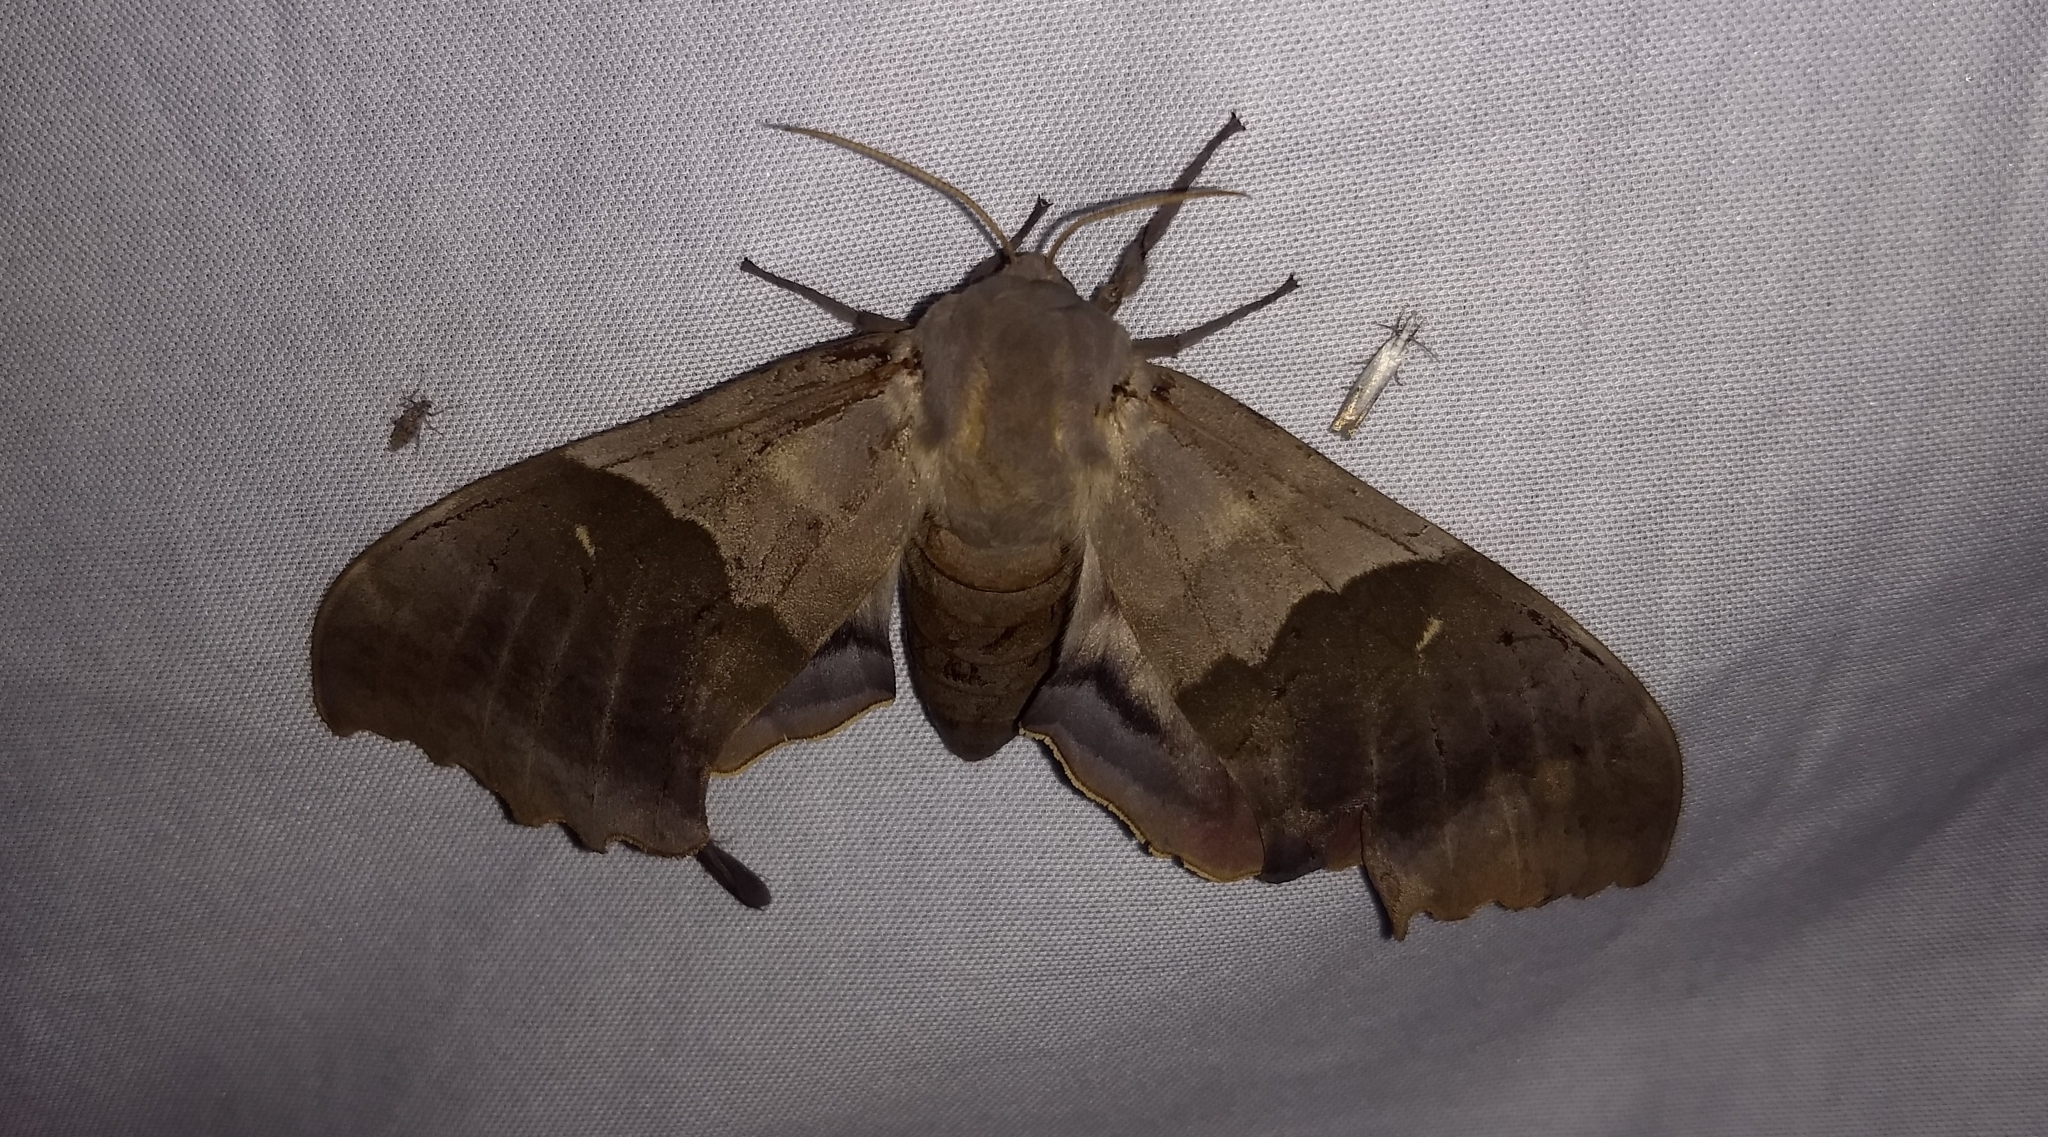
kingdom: Animalia
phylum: Arthropoda
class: Insecta
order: Lepidoptera
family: Sphingidae
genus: Pachysphinx
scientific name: Pachysphinx modesta
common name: Big poplar sphinx
